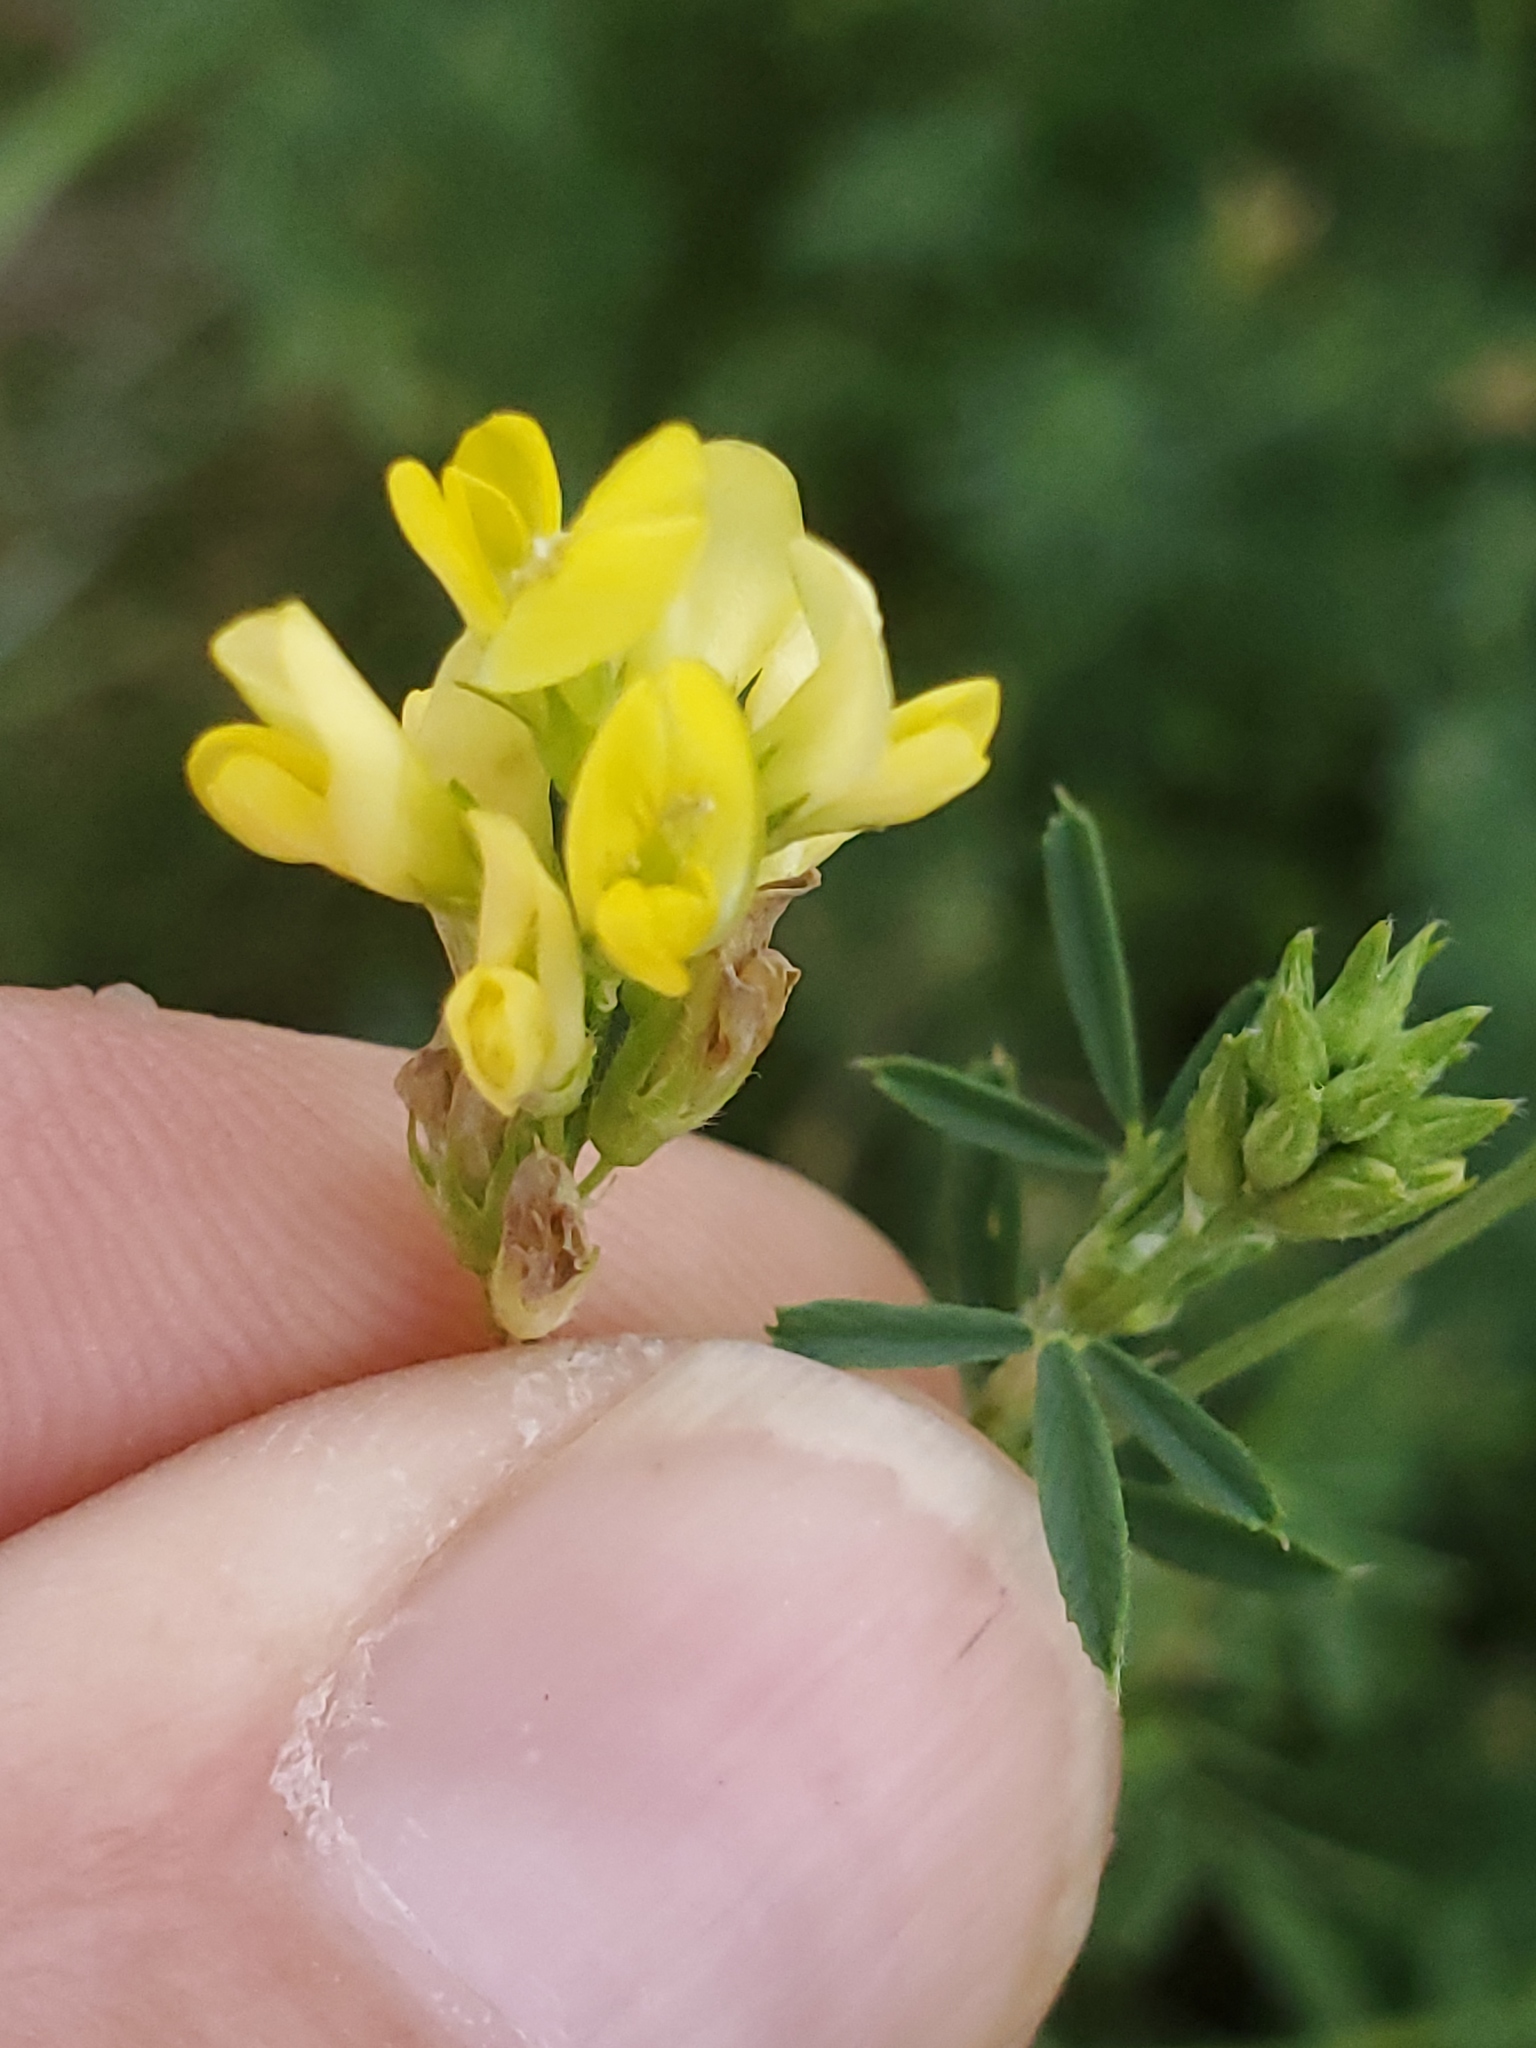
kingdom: Plantae
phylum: Tracheophyta
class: Magnoliopsida
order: Fabales
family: Fabaceae
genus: Medicago
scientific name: Medicago varia
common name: Sand lucerne
